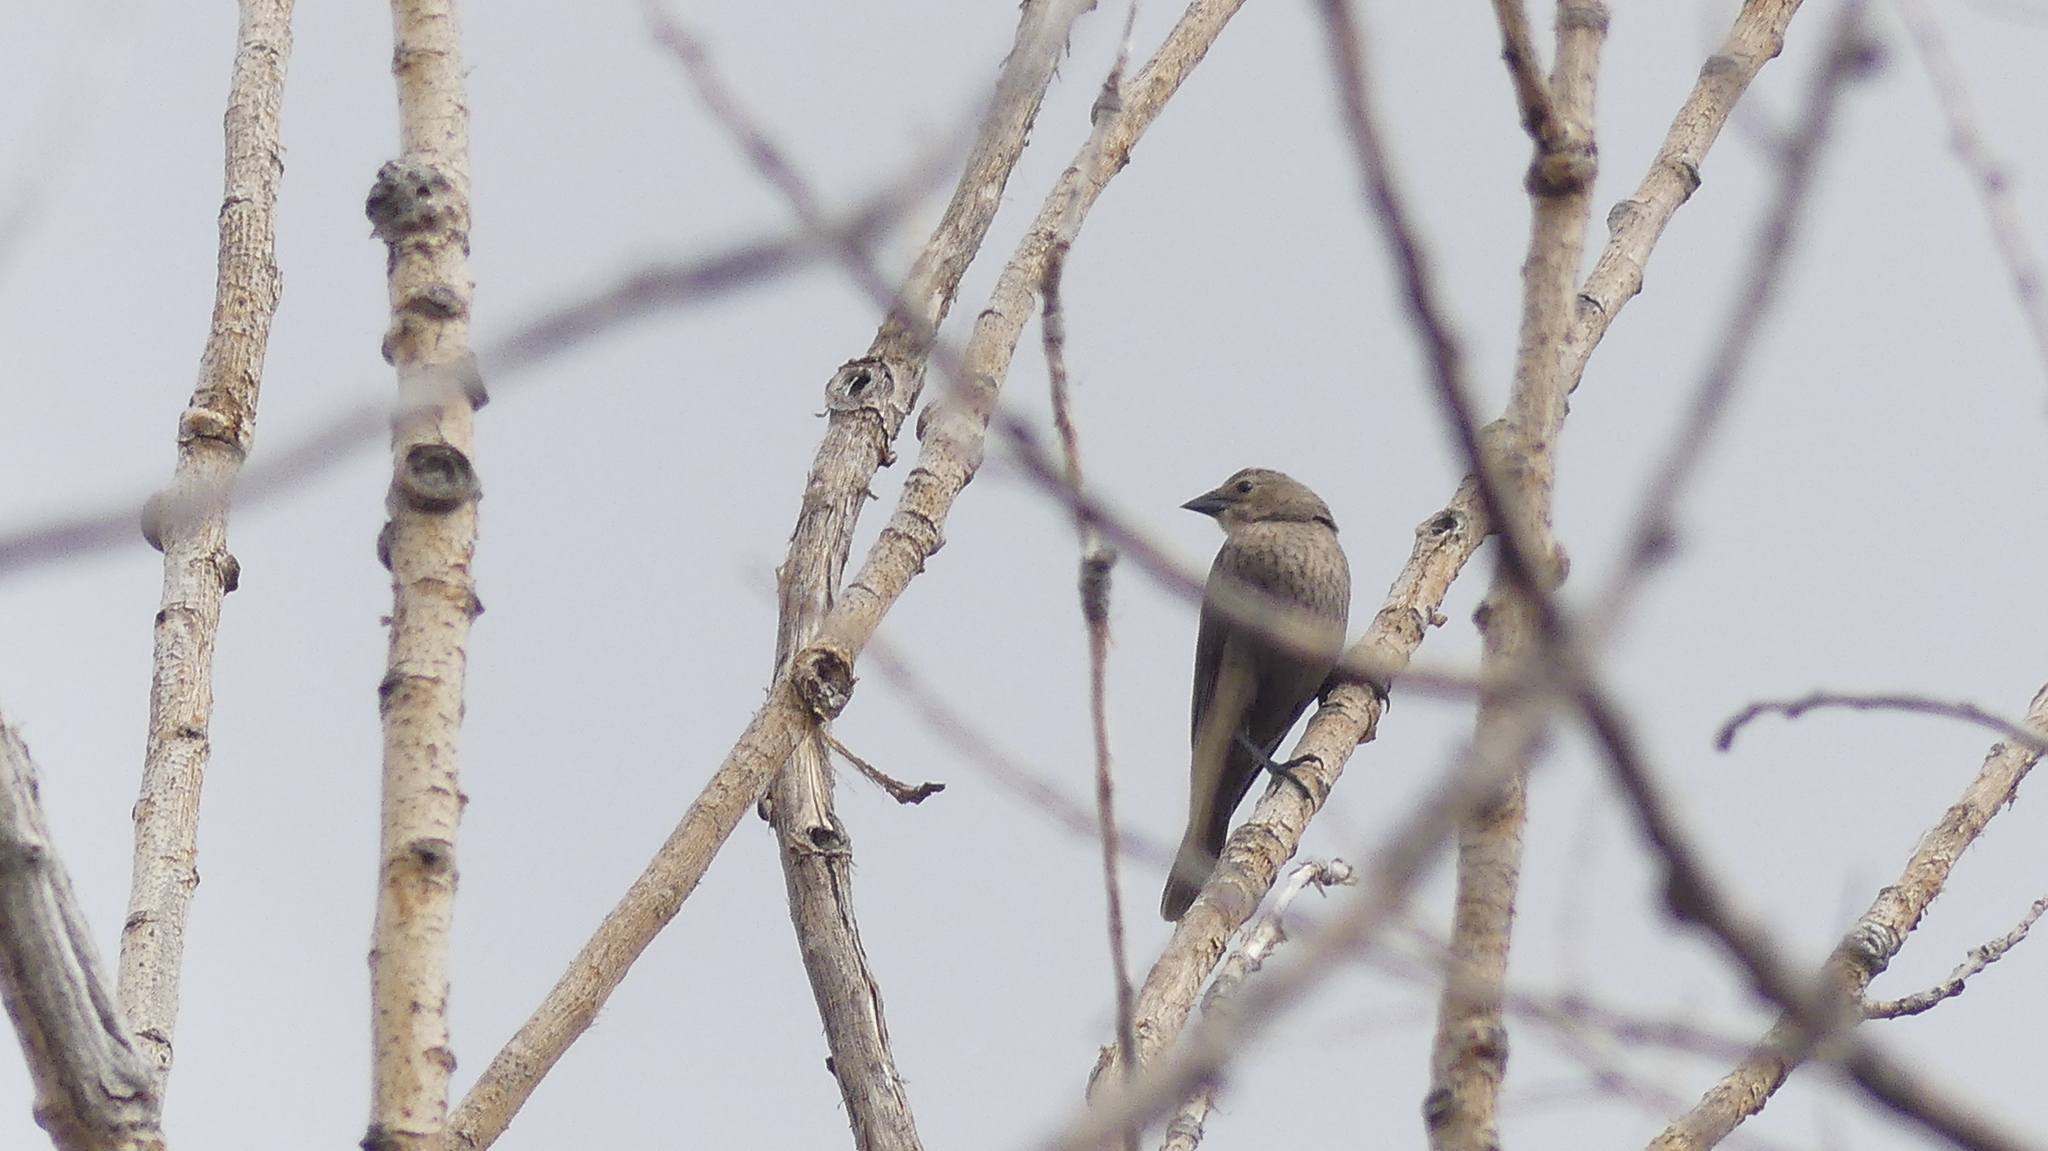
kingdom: Animalia
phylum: Chordata
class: Aves
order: Passeriformes
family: Icteridae
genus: Molothrus
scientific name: Molothrus ater
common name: Brown-headed cowbird
